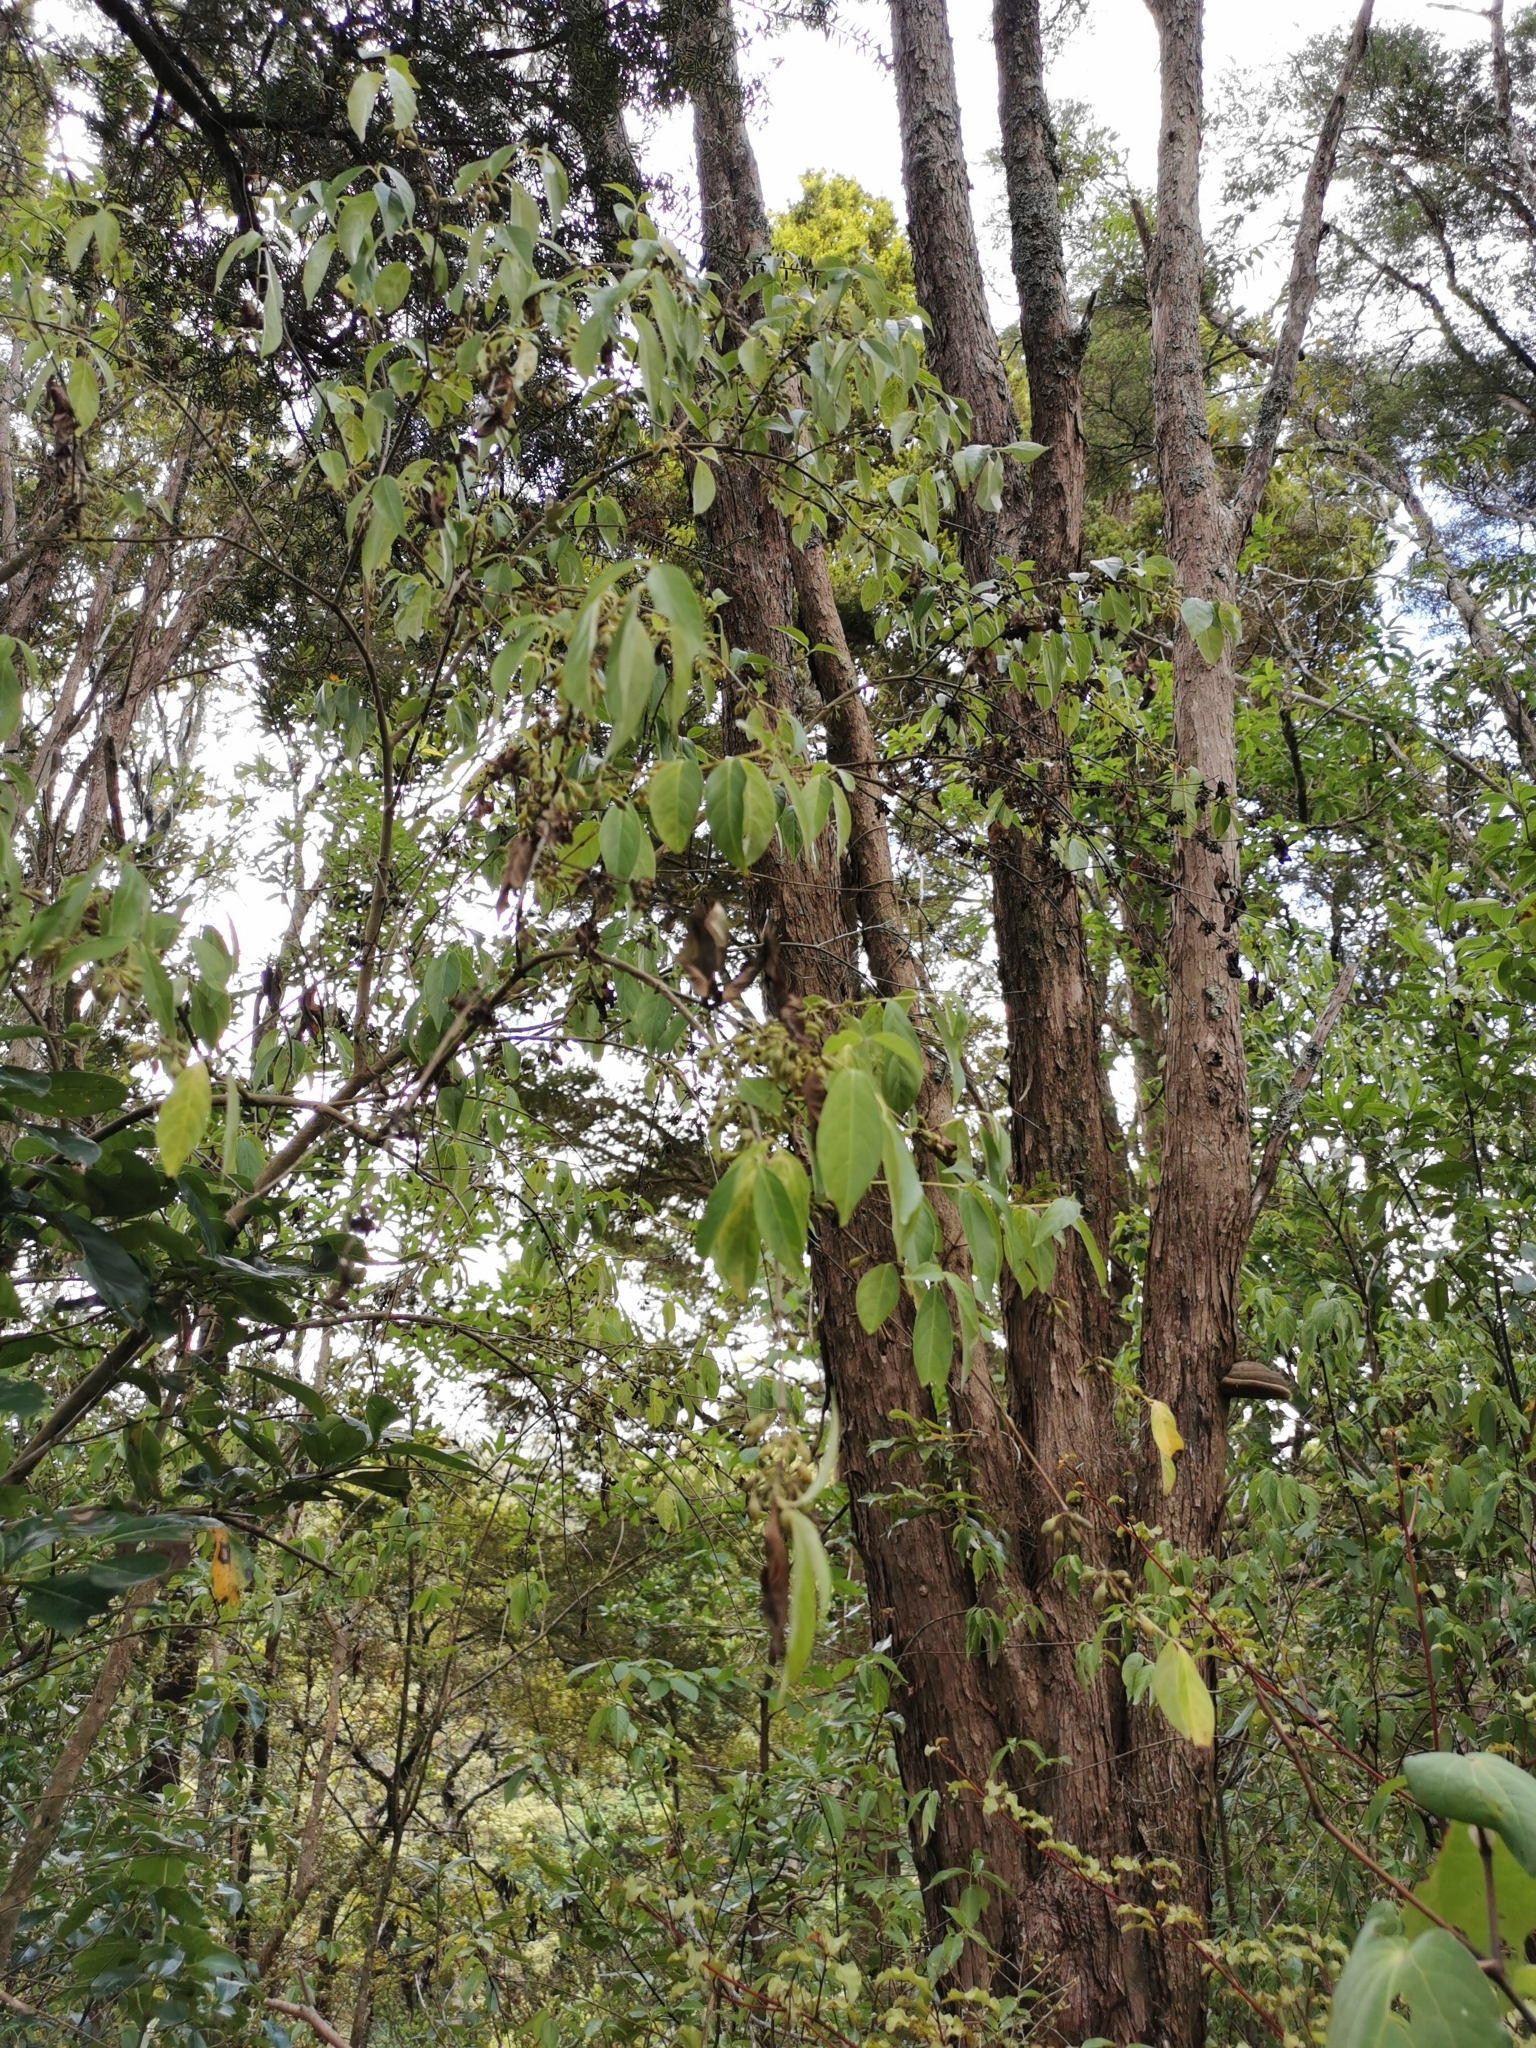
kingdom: Plantae
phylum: Tracheophyta
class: Magnoliopsida
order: Gentianales
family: Loganiaceae
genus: Geniostoma
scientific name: Geniostoma ligustrifolium
